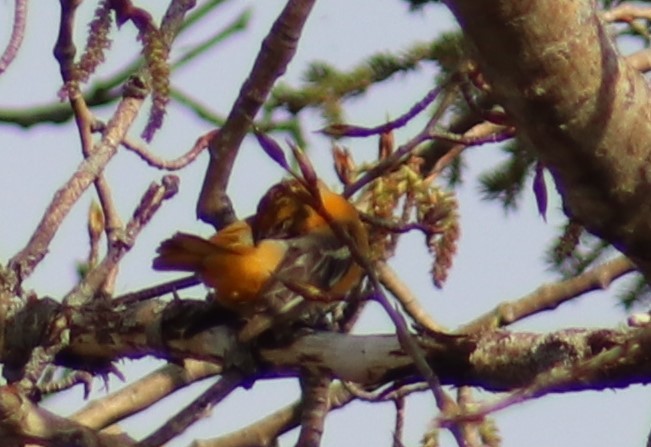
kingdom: Animalia
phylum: Chordata
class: Aves
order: Passeriformes
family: Icteridae
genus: Icterus
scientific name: Icterus galbula
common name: Baltimore oriole
